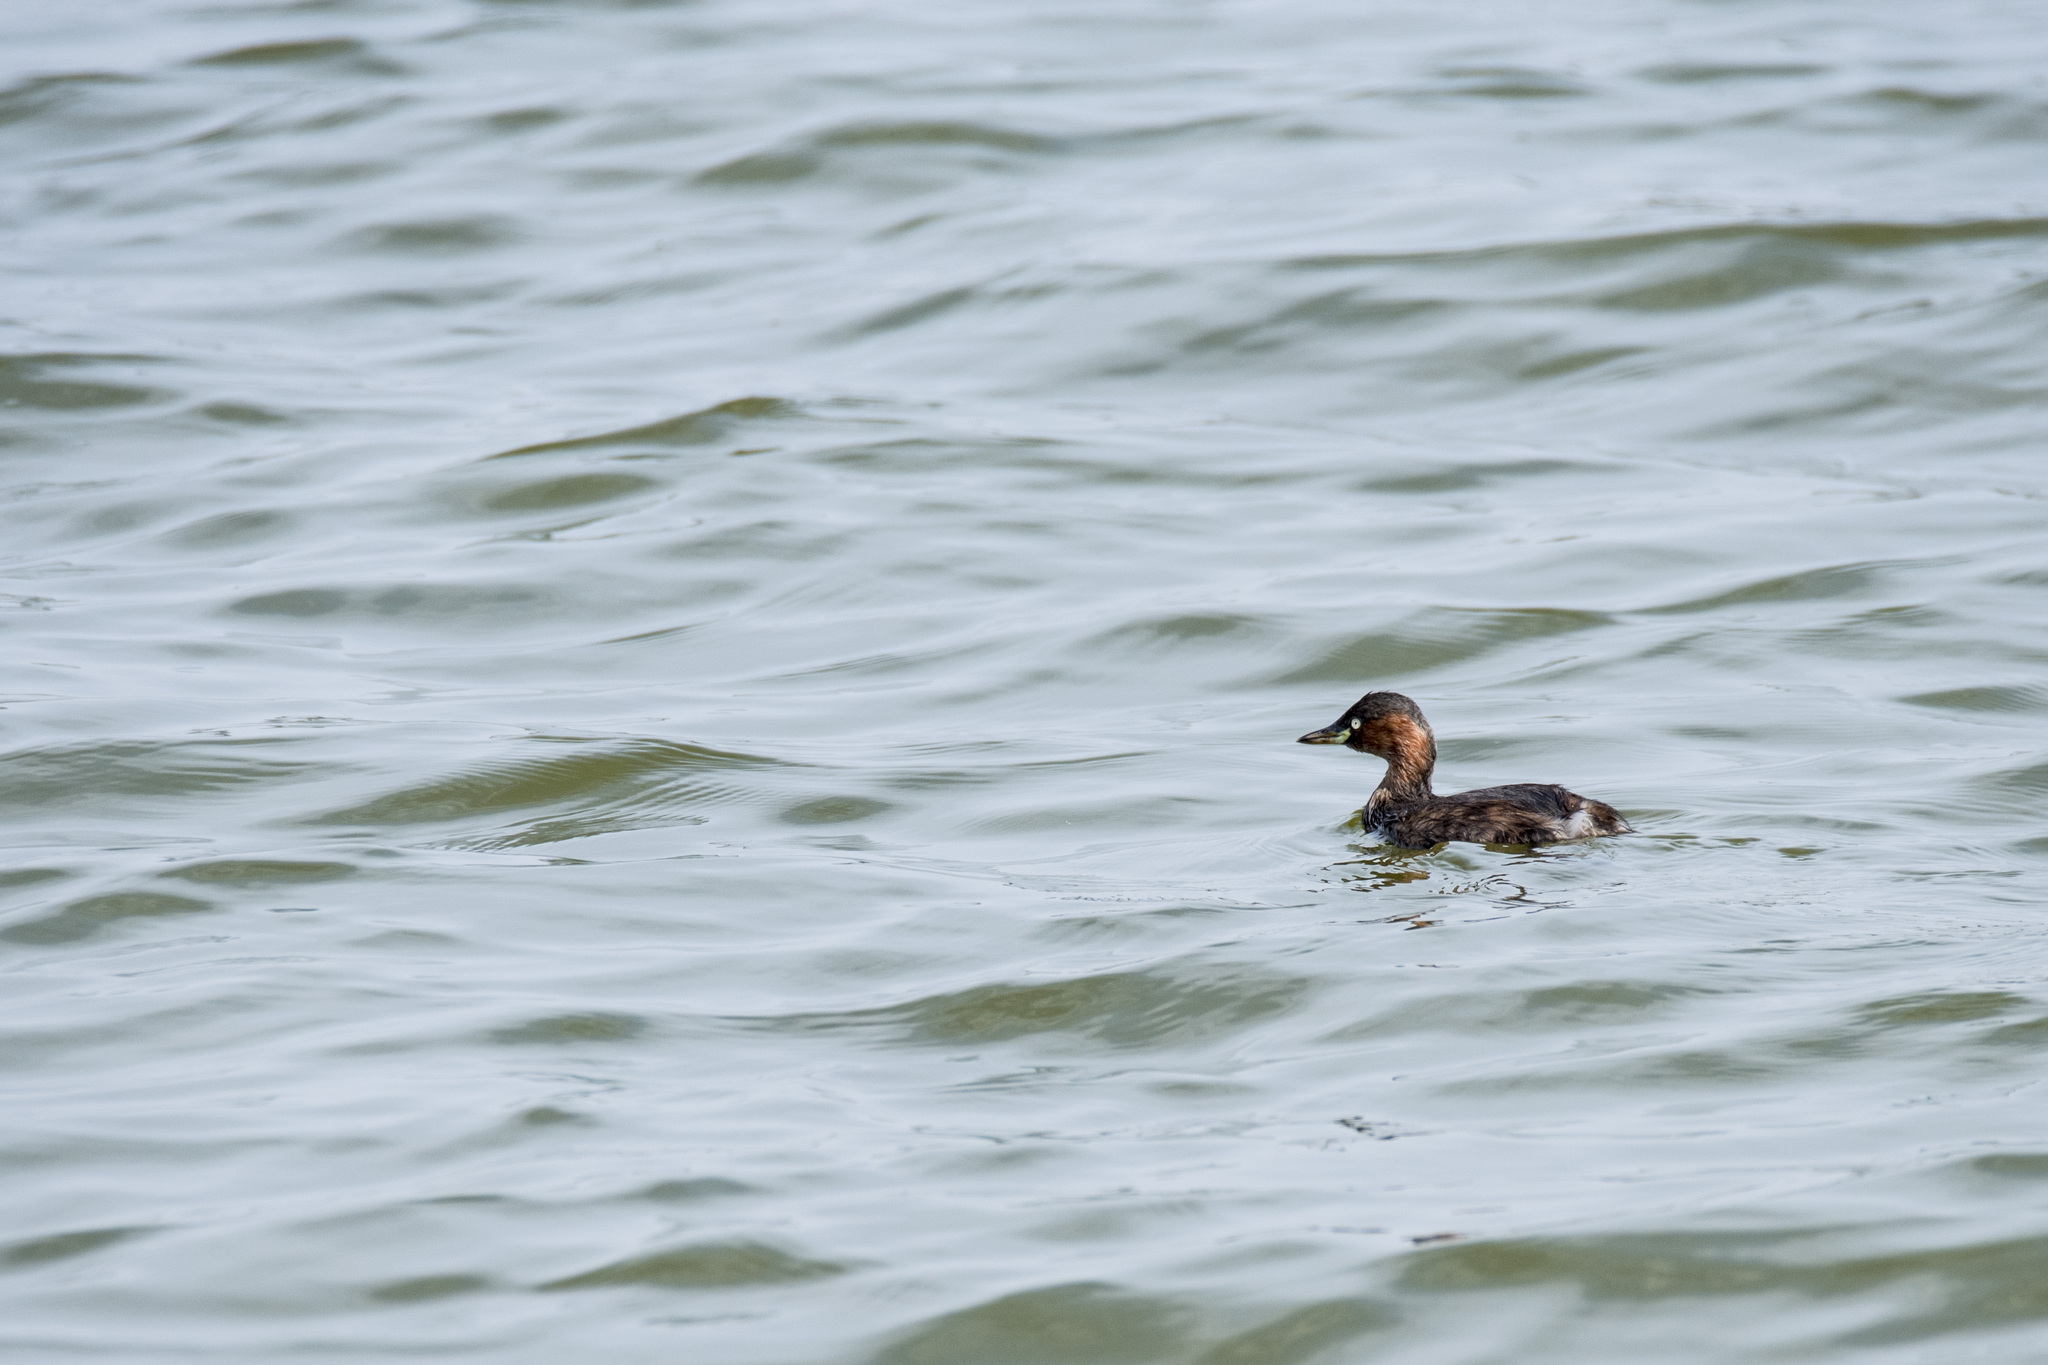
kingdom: Animalia
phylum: Chordata
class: Aves
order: Podicipediformes
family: Podicipedidae
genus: Tachybaptus
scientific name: Tachybaptus ruficollis
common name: Little grebe
